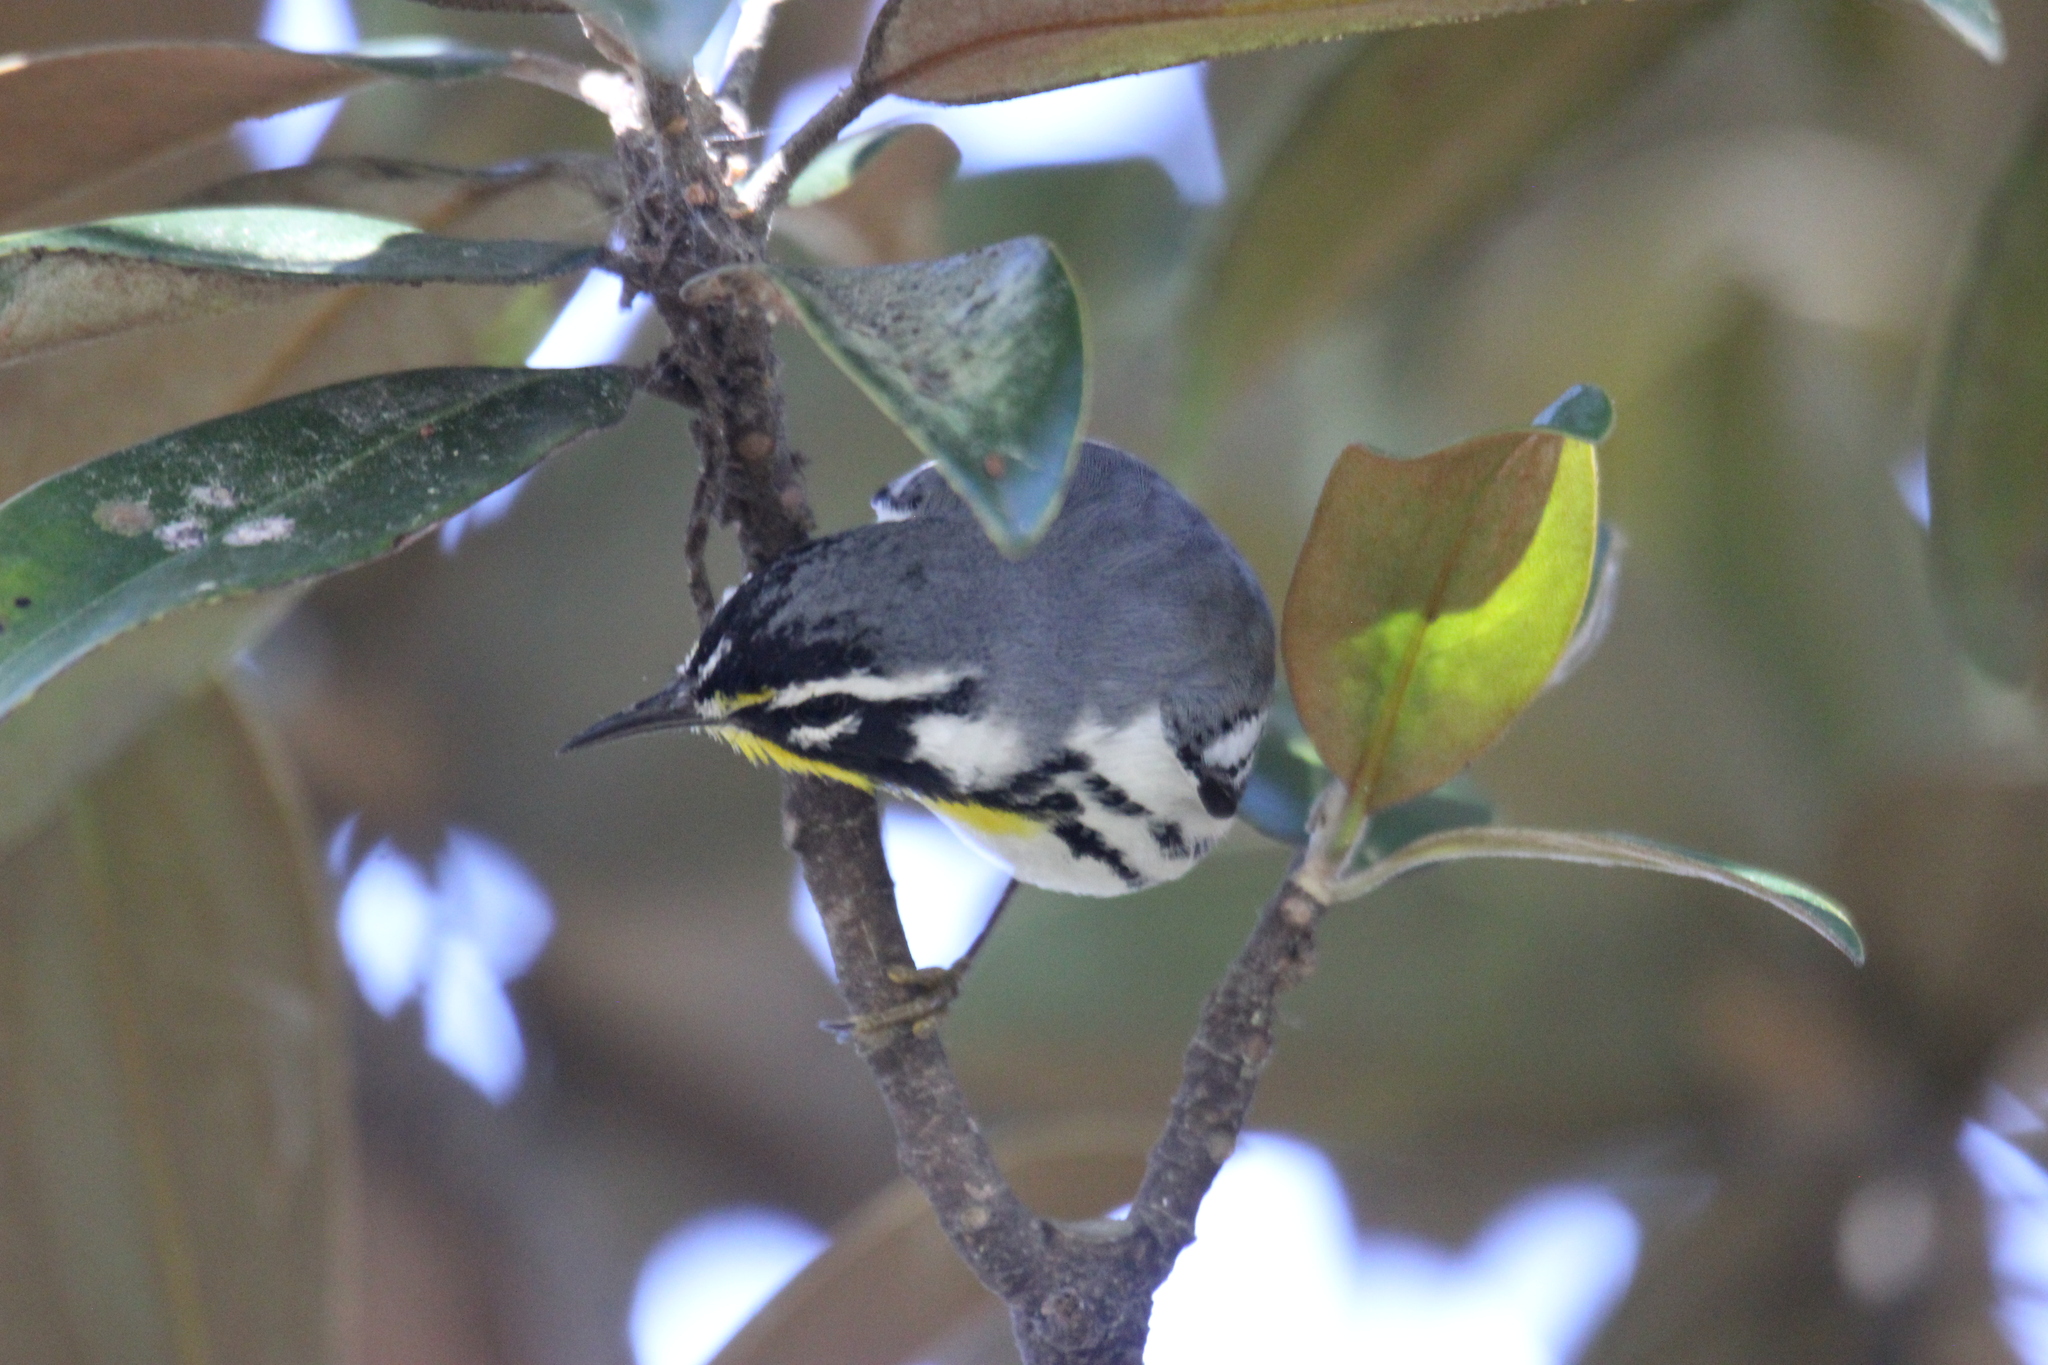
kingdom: Animalia
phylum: Chordata
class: Aves
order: Passeriformes
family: Parulidae
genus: Setophaga
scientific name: Setophaga dominica
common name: Yellow-throated warbler
